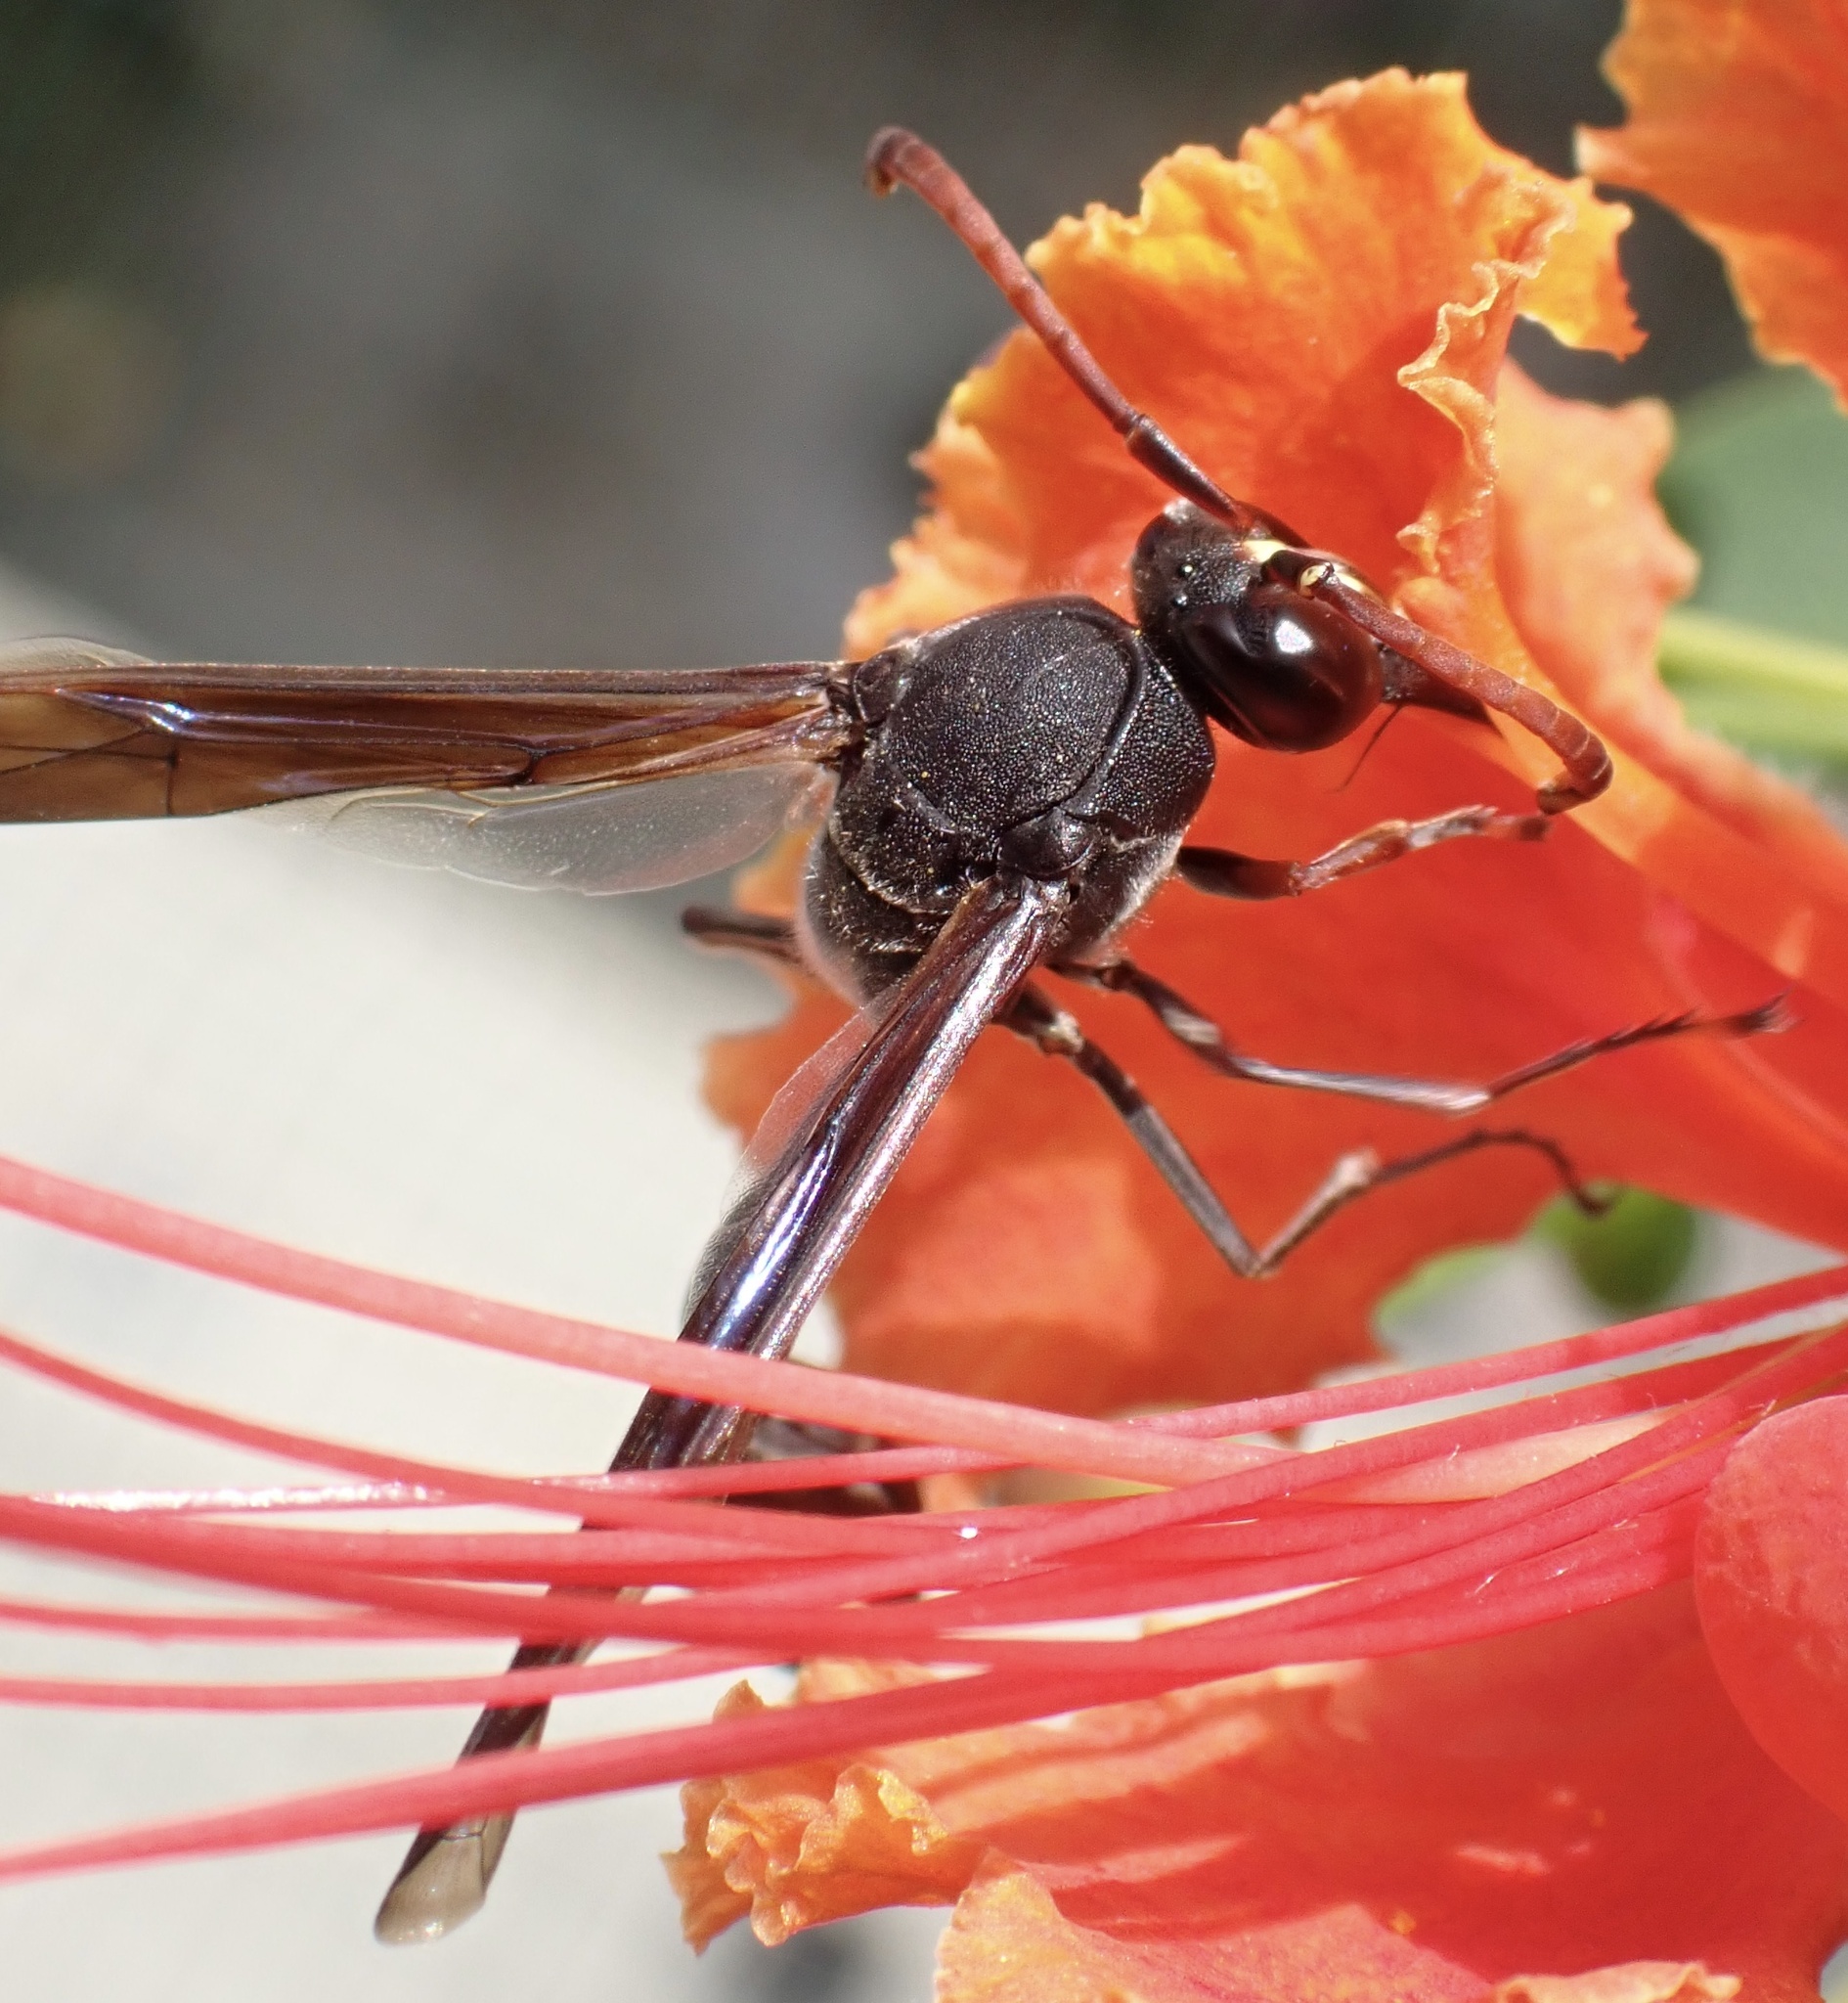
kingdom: Animalia
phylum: Arthropoda
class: Insecta
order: Hymenoptera
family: Eumenidae
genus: Delta
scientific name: Delta emarginatum
